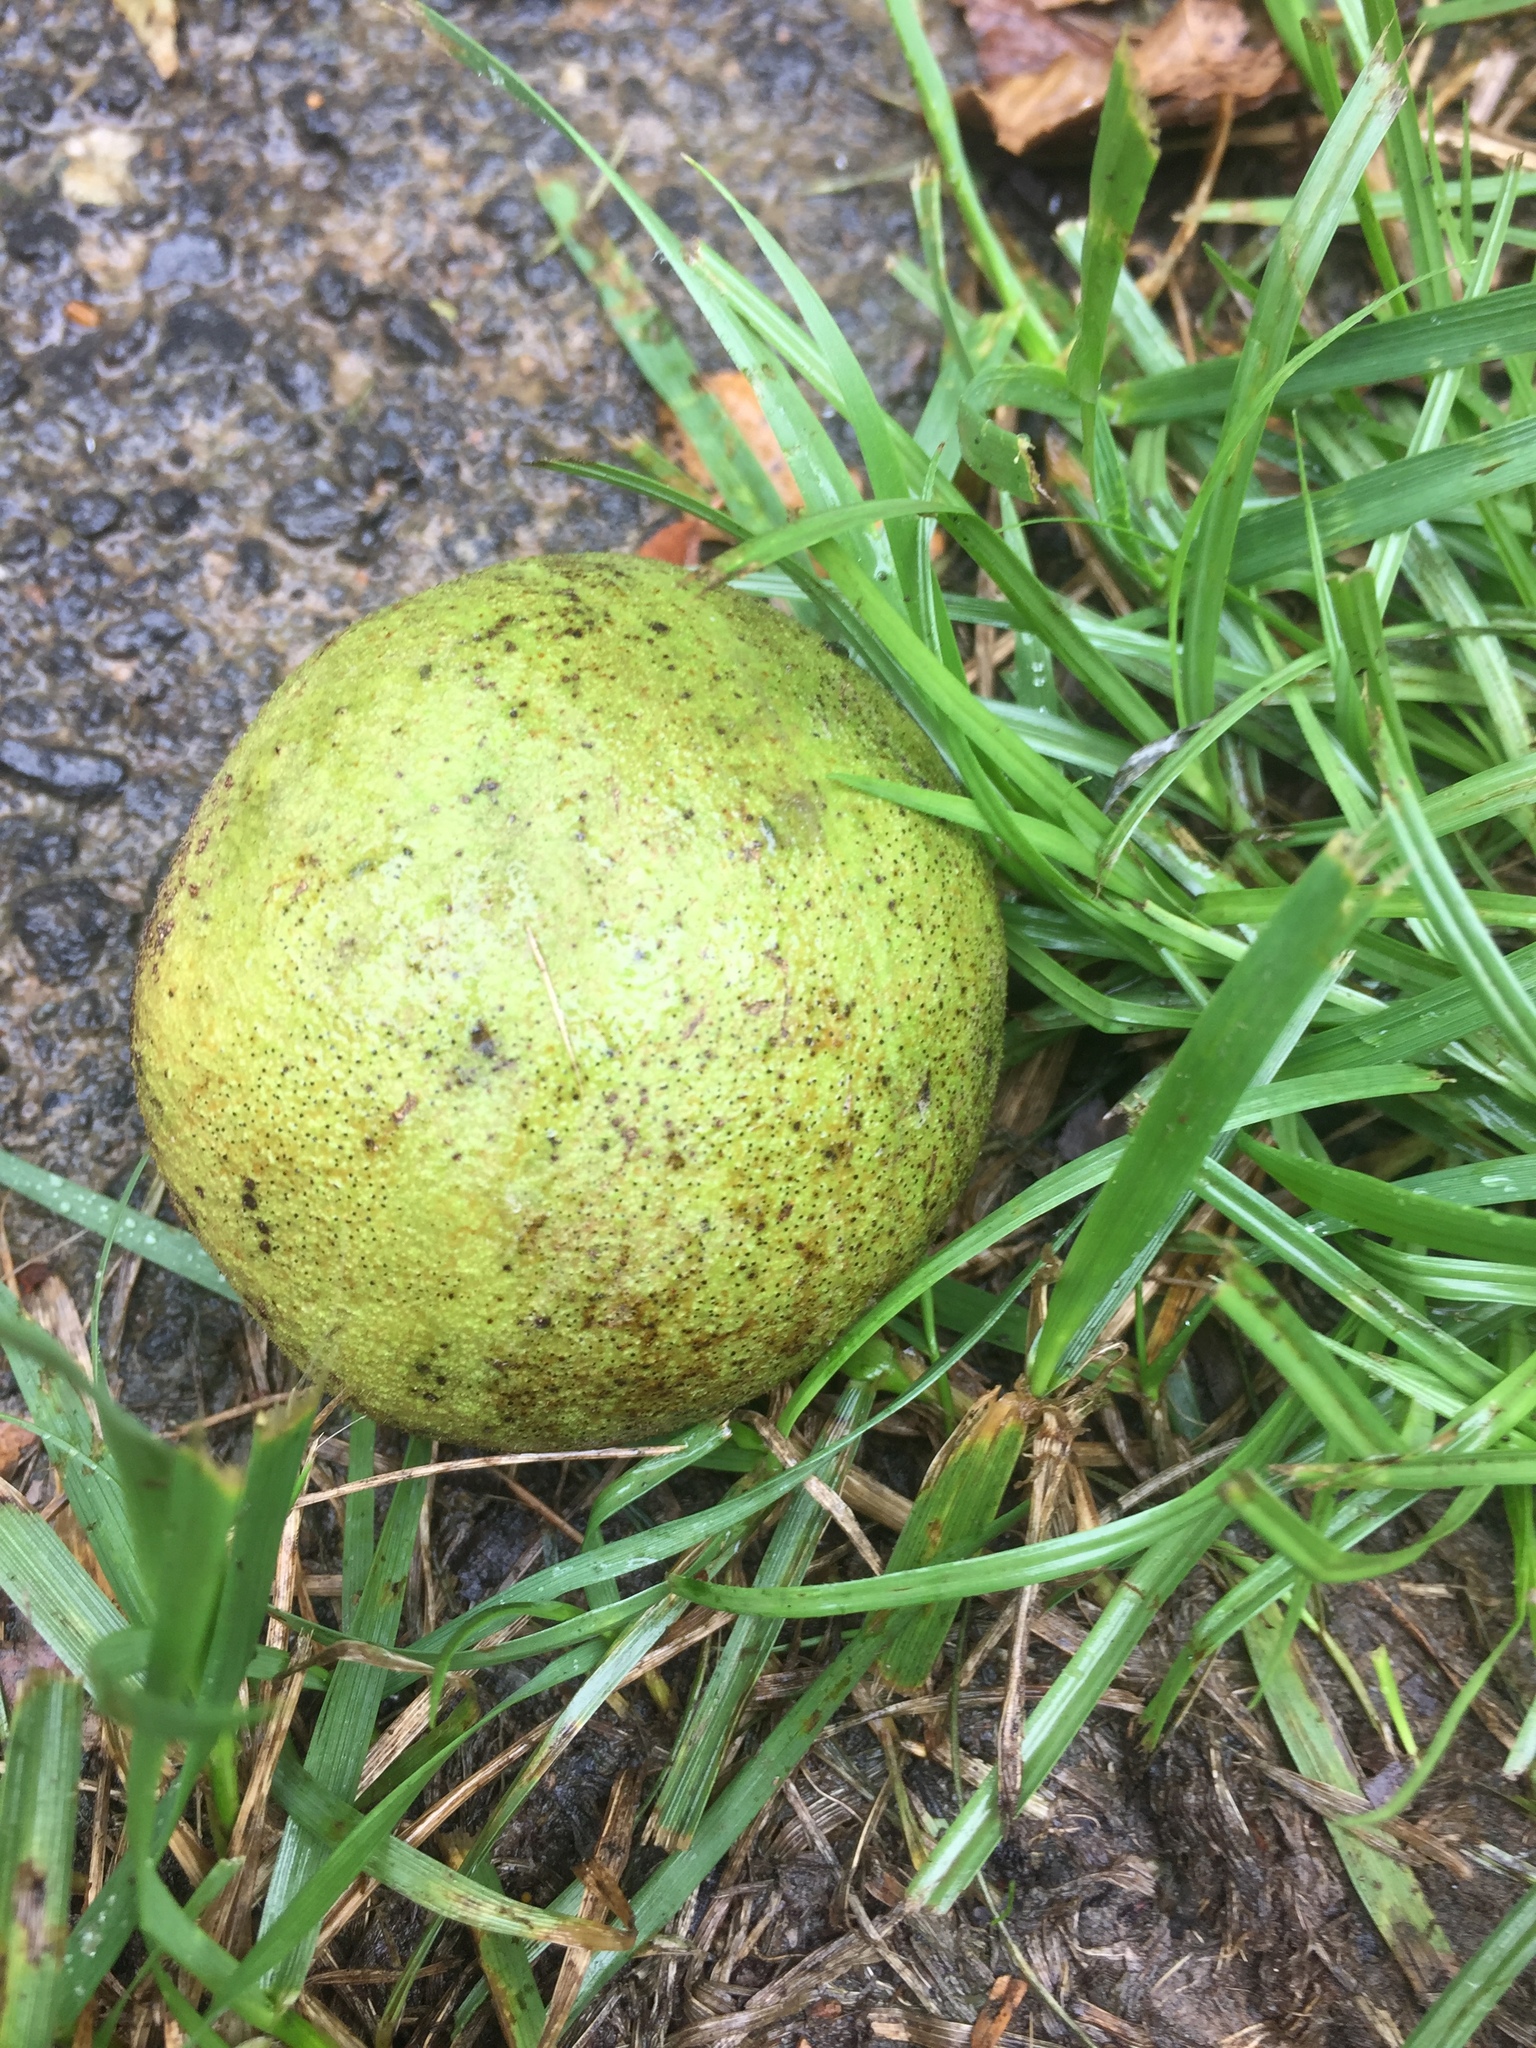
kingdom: Plantae
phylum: Tracheophyta
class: Magnoliopsida
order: Fagales
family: Juglandaceae
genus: Juglans
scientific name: Juglans nigra
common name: Black walnut
